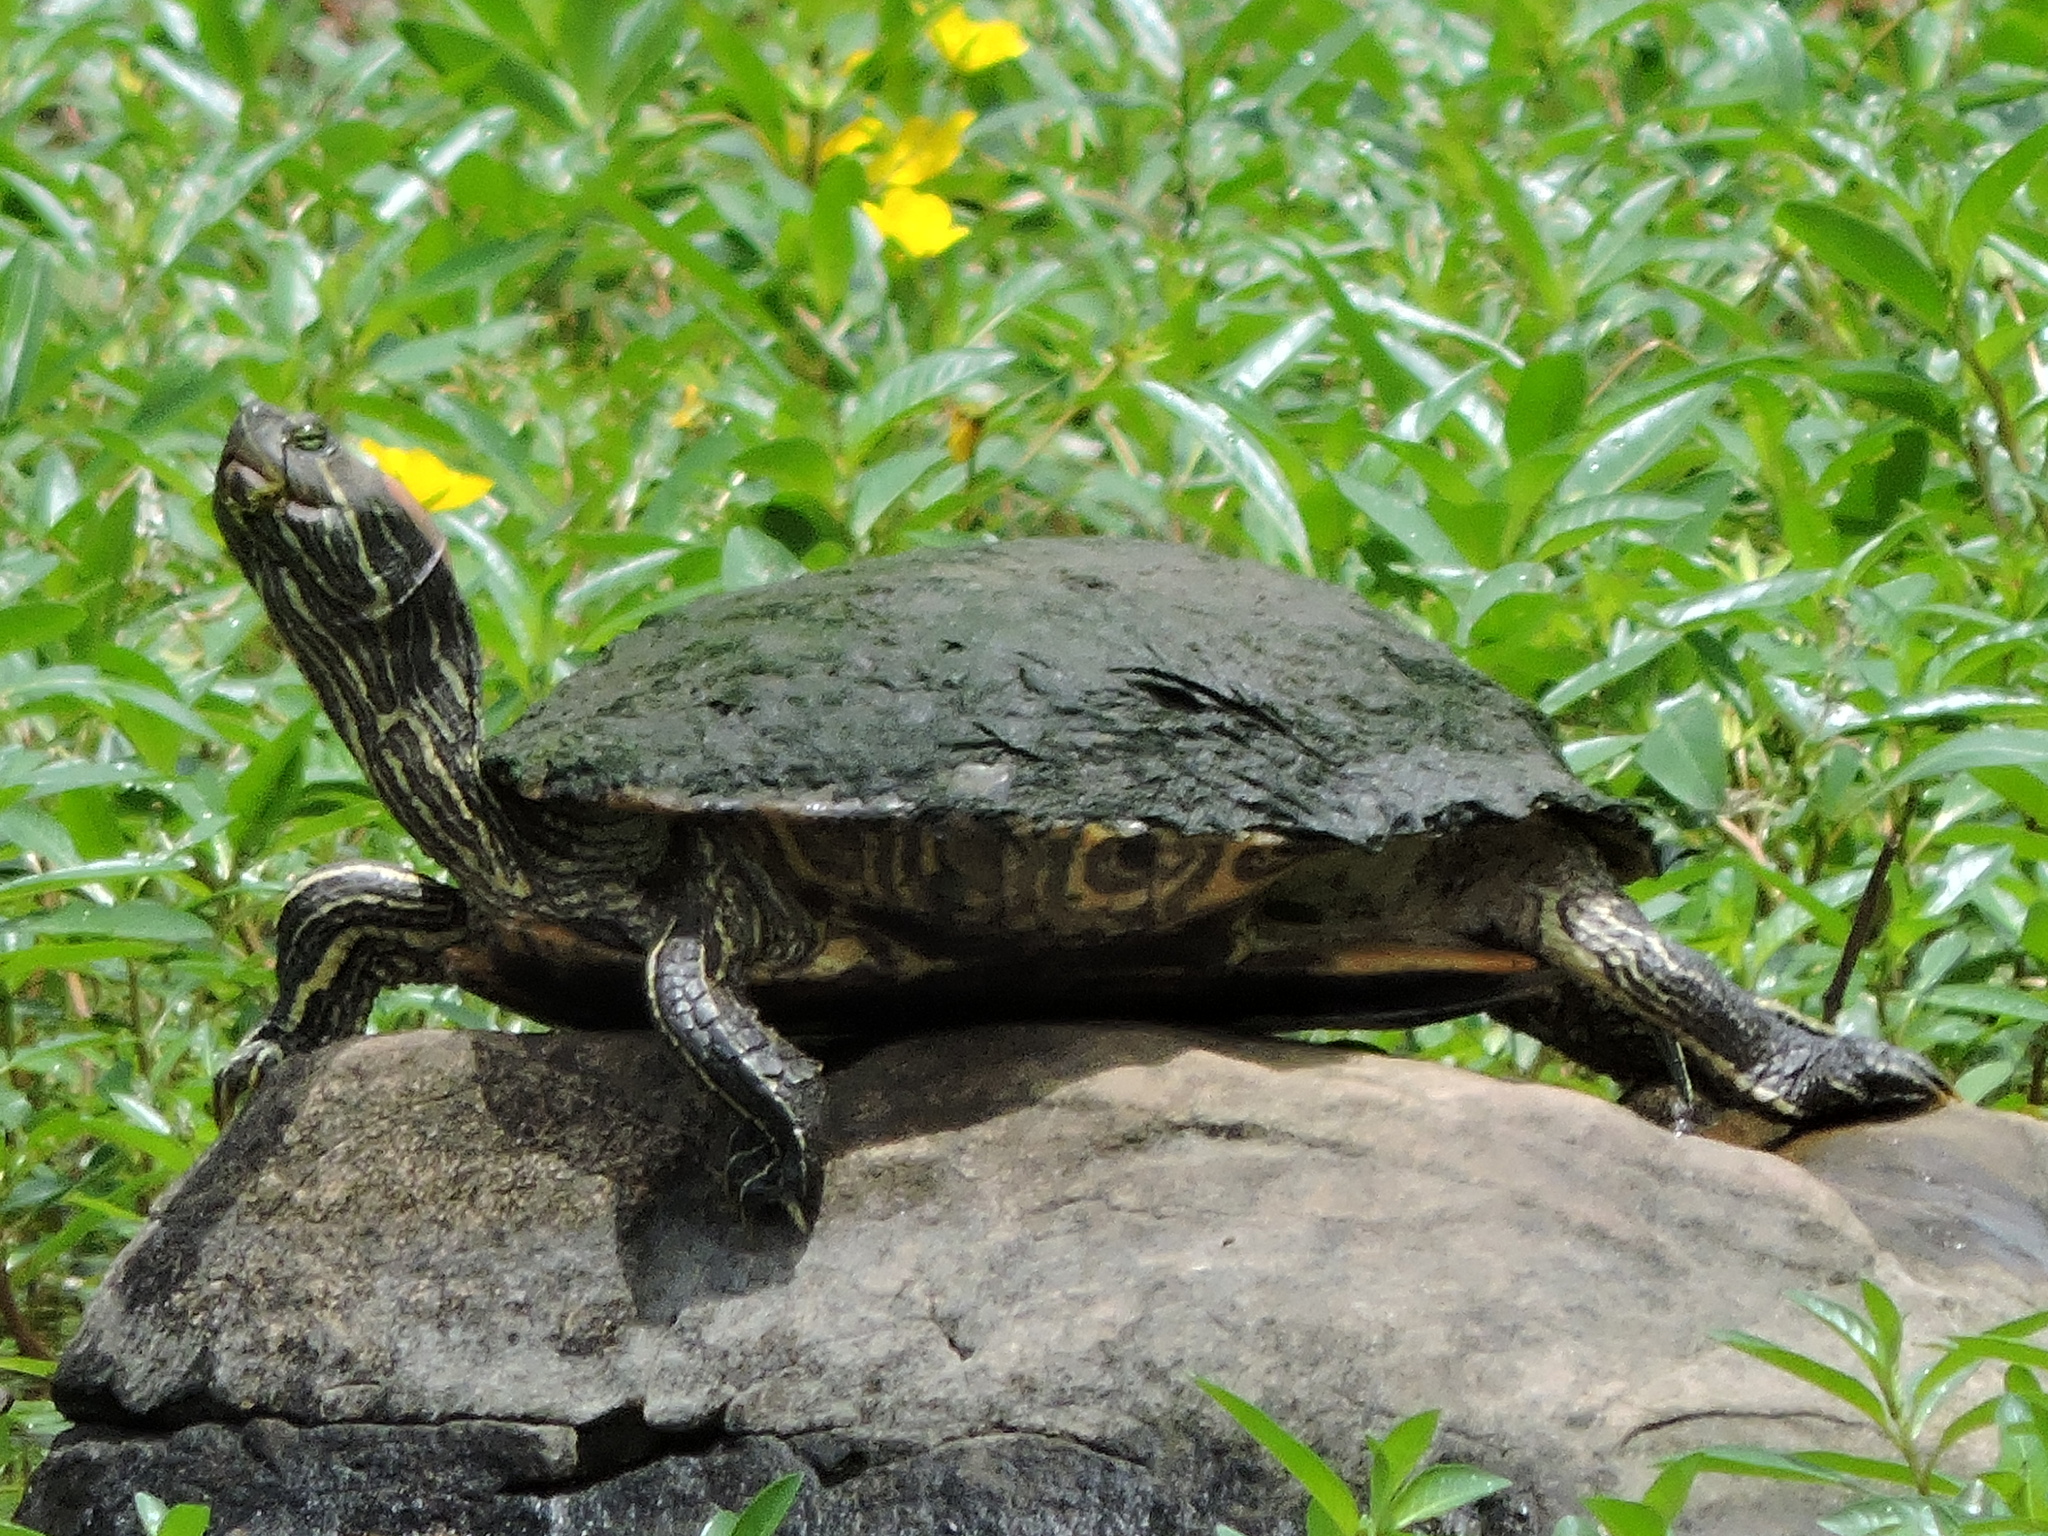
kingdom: Animalia
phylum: Chordata
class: Testudines
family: Emydidae
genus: Trachemys
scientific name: Trachemys scripta
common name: Slider
